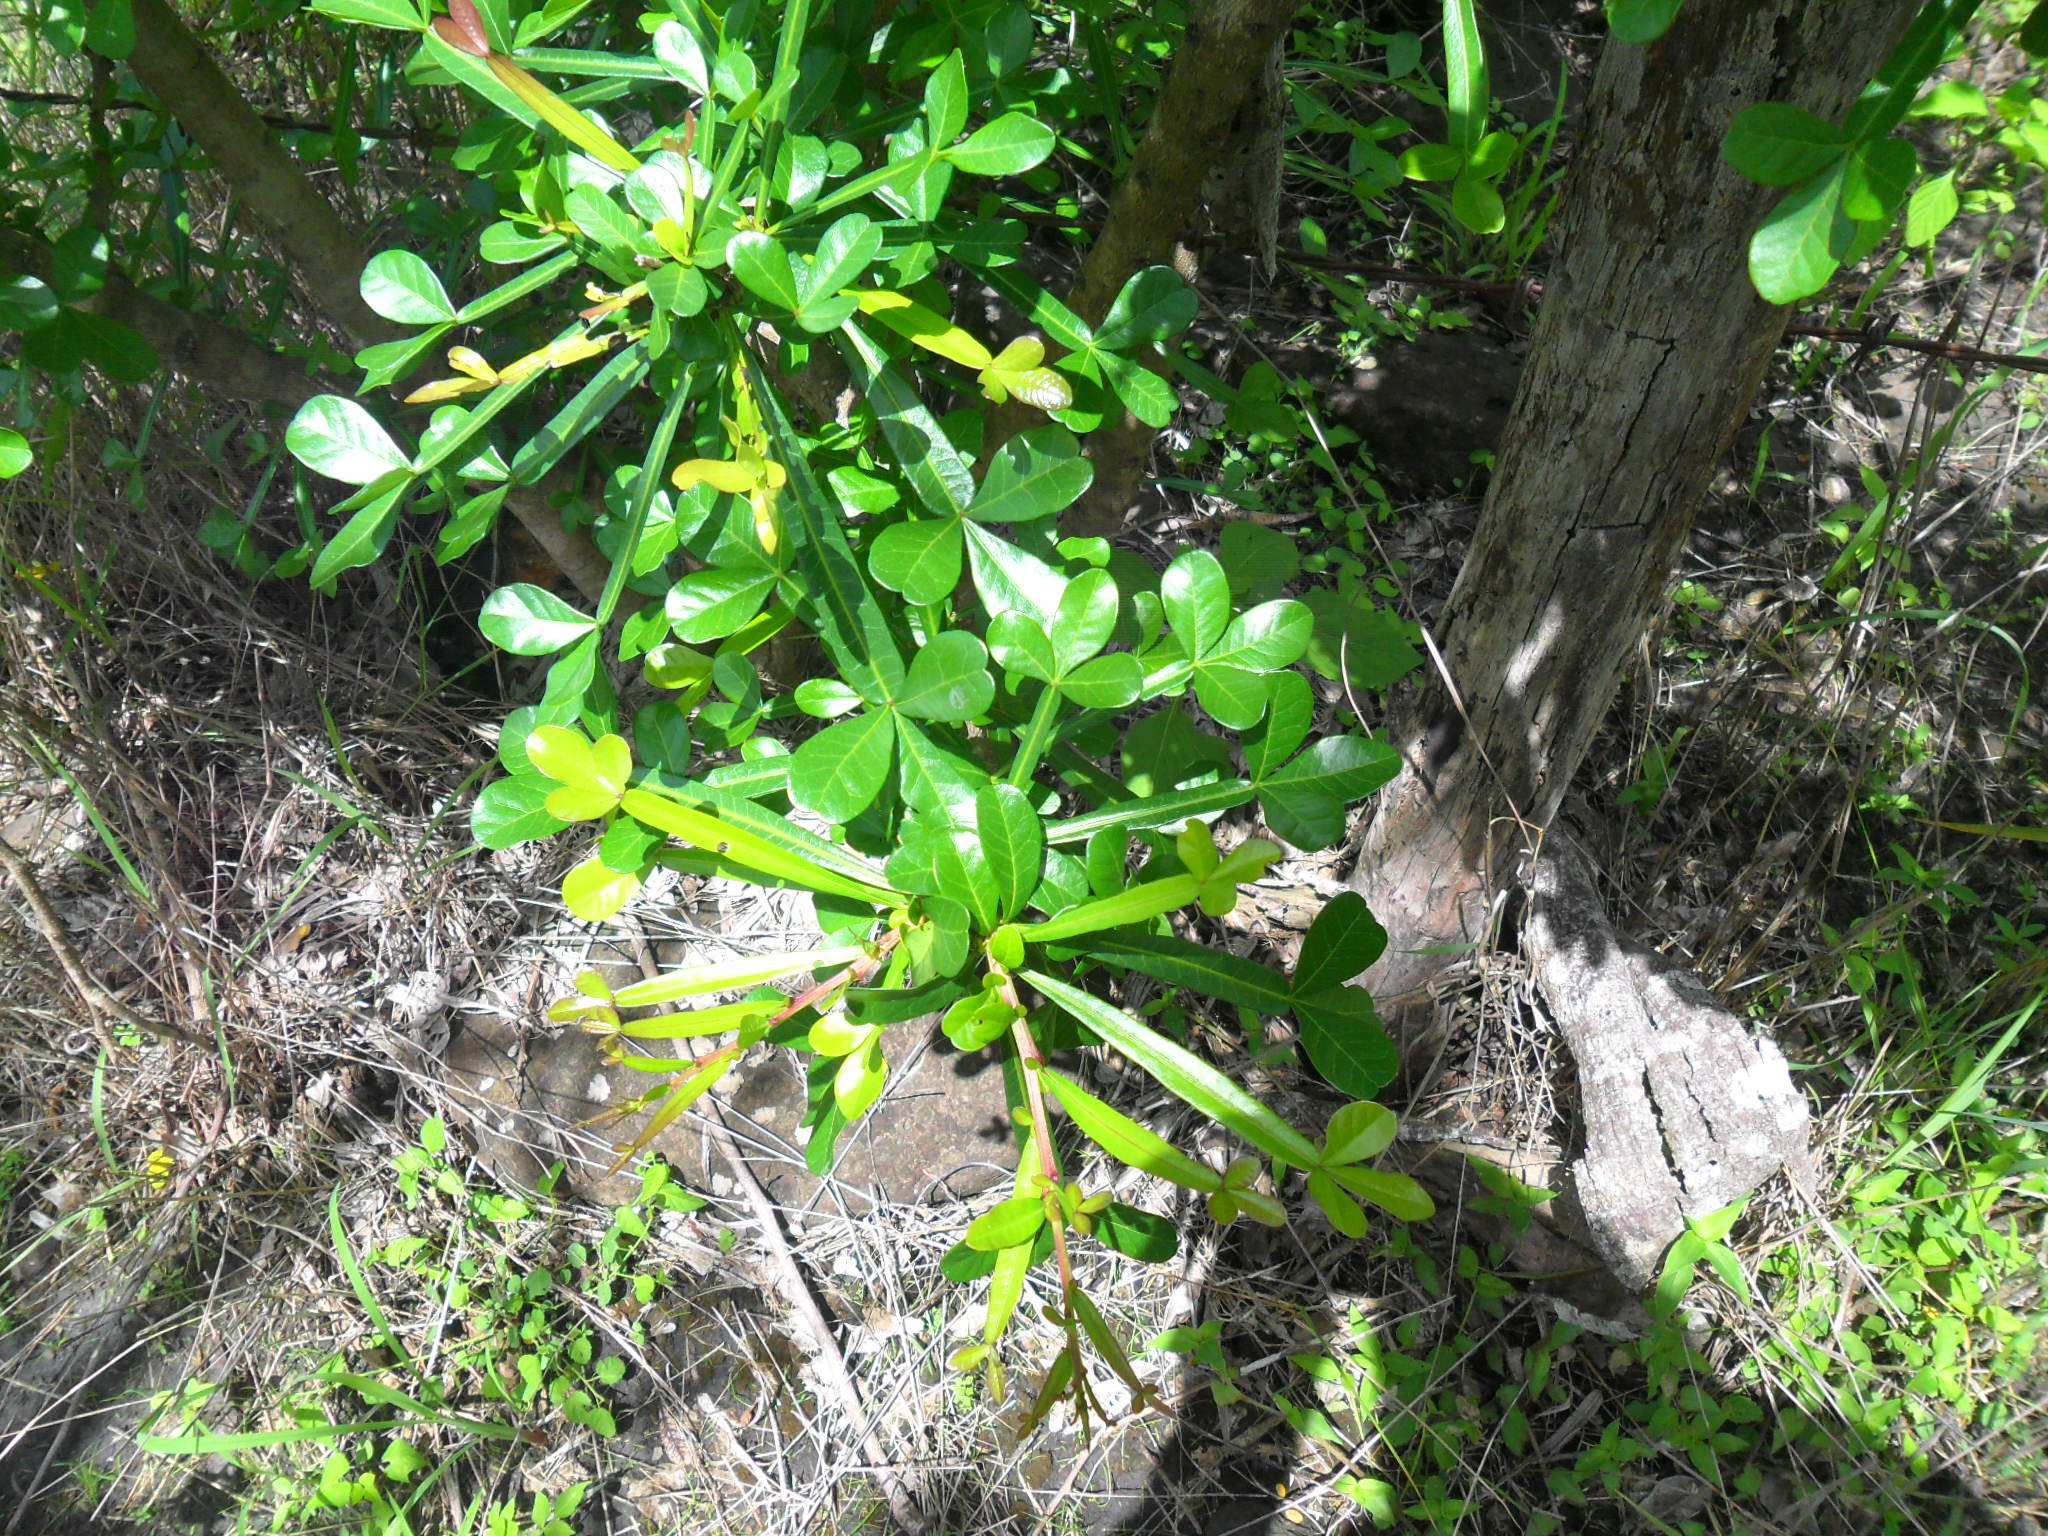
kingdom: Plantae
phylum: Tracheophyta
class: Magnoliopsida
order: Lamiales
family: Bignoniaceae
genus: Crescentia
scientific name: Crescentia alata
